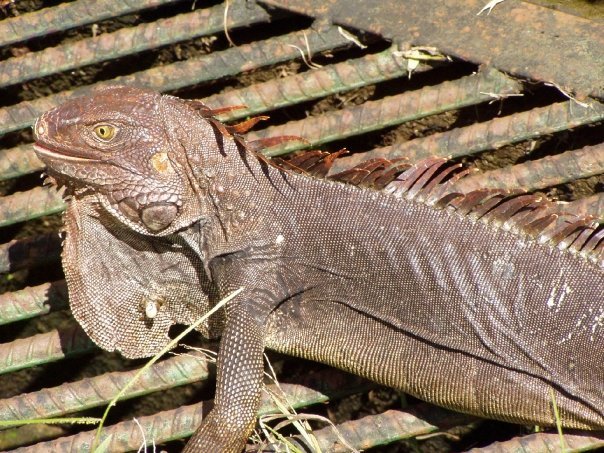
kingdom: Animalia
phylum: Chordata
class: Squamata
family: Iguanidae
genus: Iguana
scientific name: Iguana iguana
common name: Green iguana
